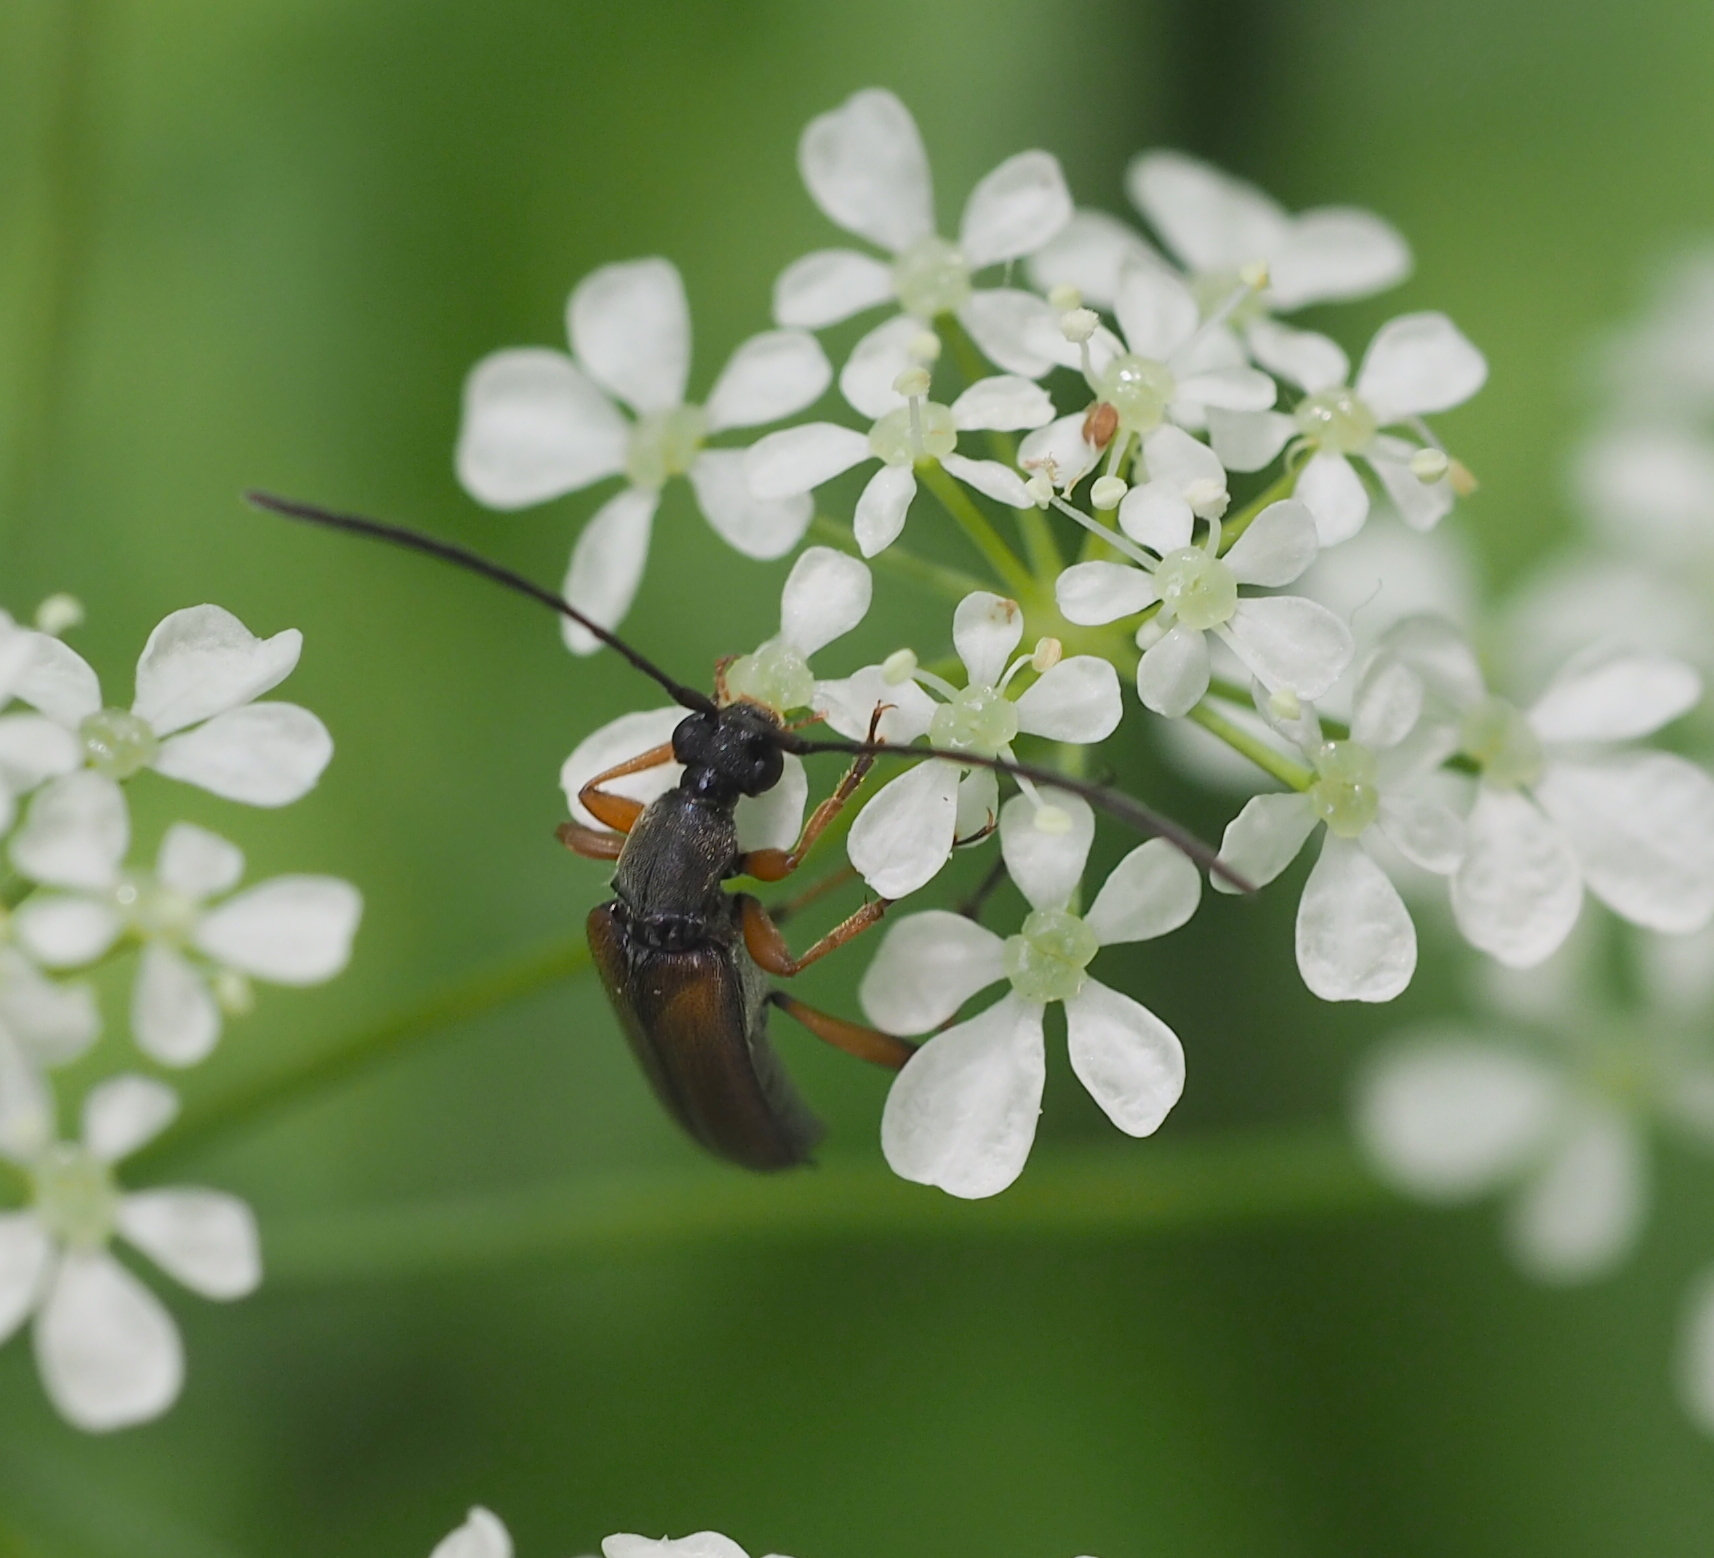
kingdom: Animalia
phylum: Arthropoda
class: Insecta
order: Coleoptera
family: Cerambycidae
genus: Alosterna
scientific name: Alosterna tabacicolor
